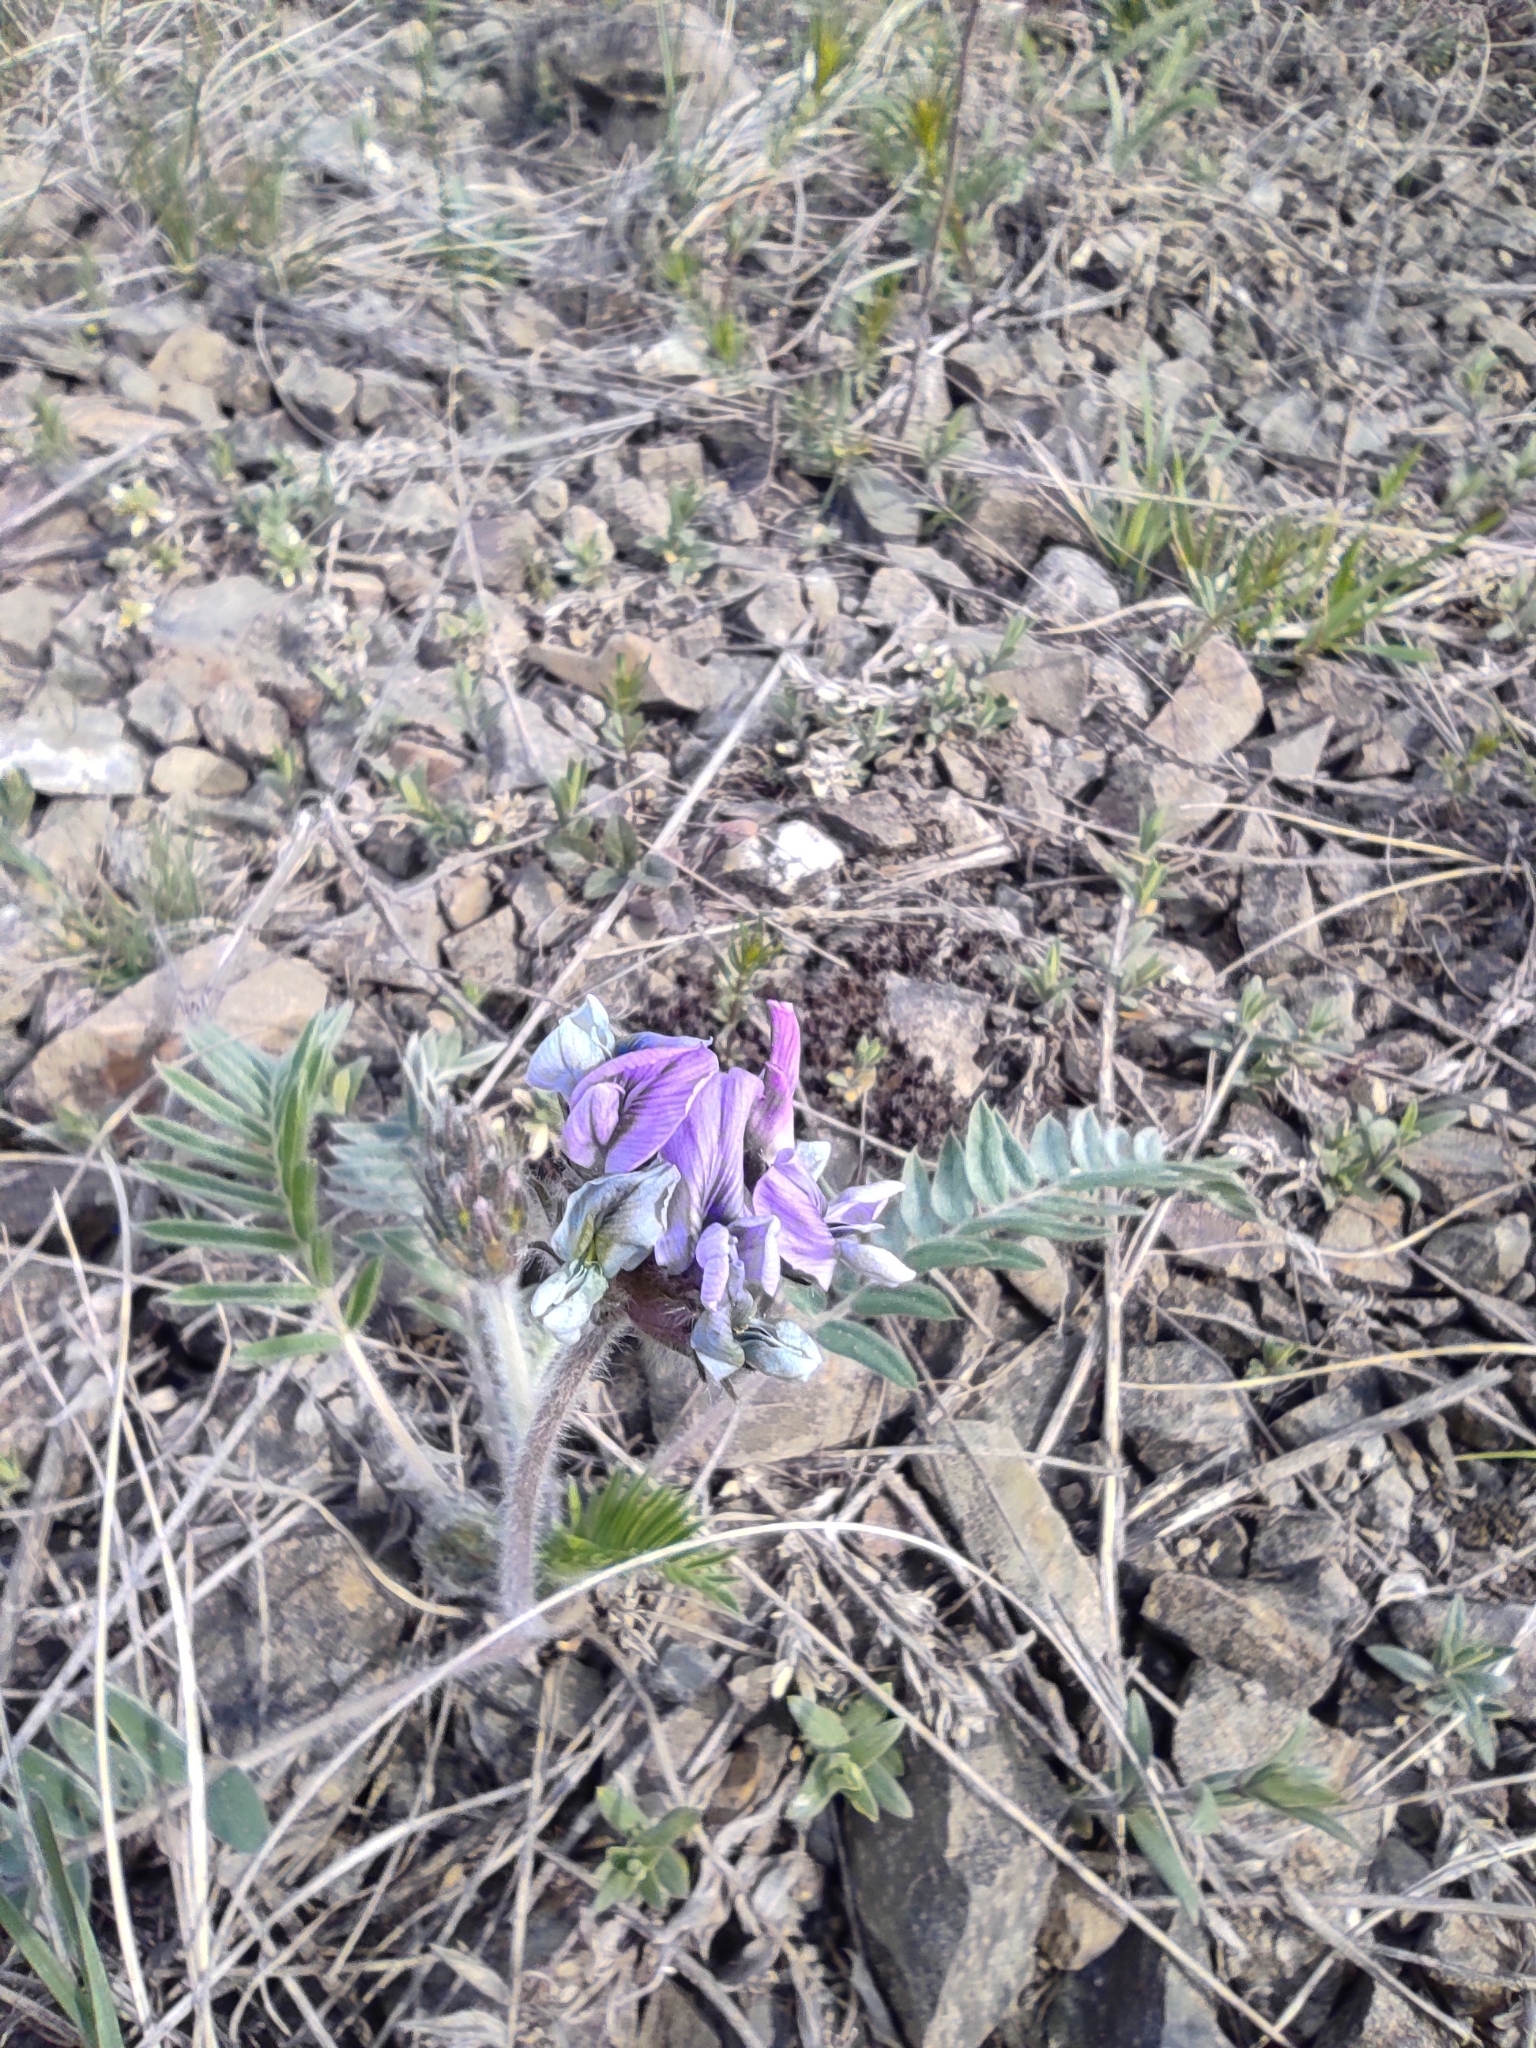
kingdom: Plantae
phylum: Tracheophyta
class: Magnoliopsida
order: Fabales
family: Fabaceae
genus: Oxytropis
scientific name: Oxytropis campanulata
